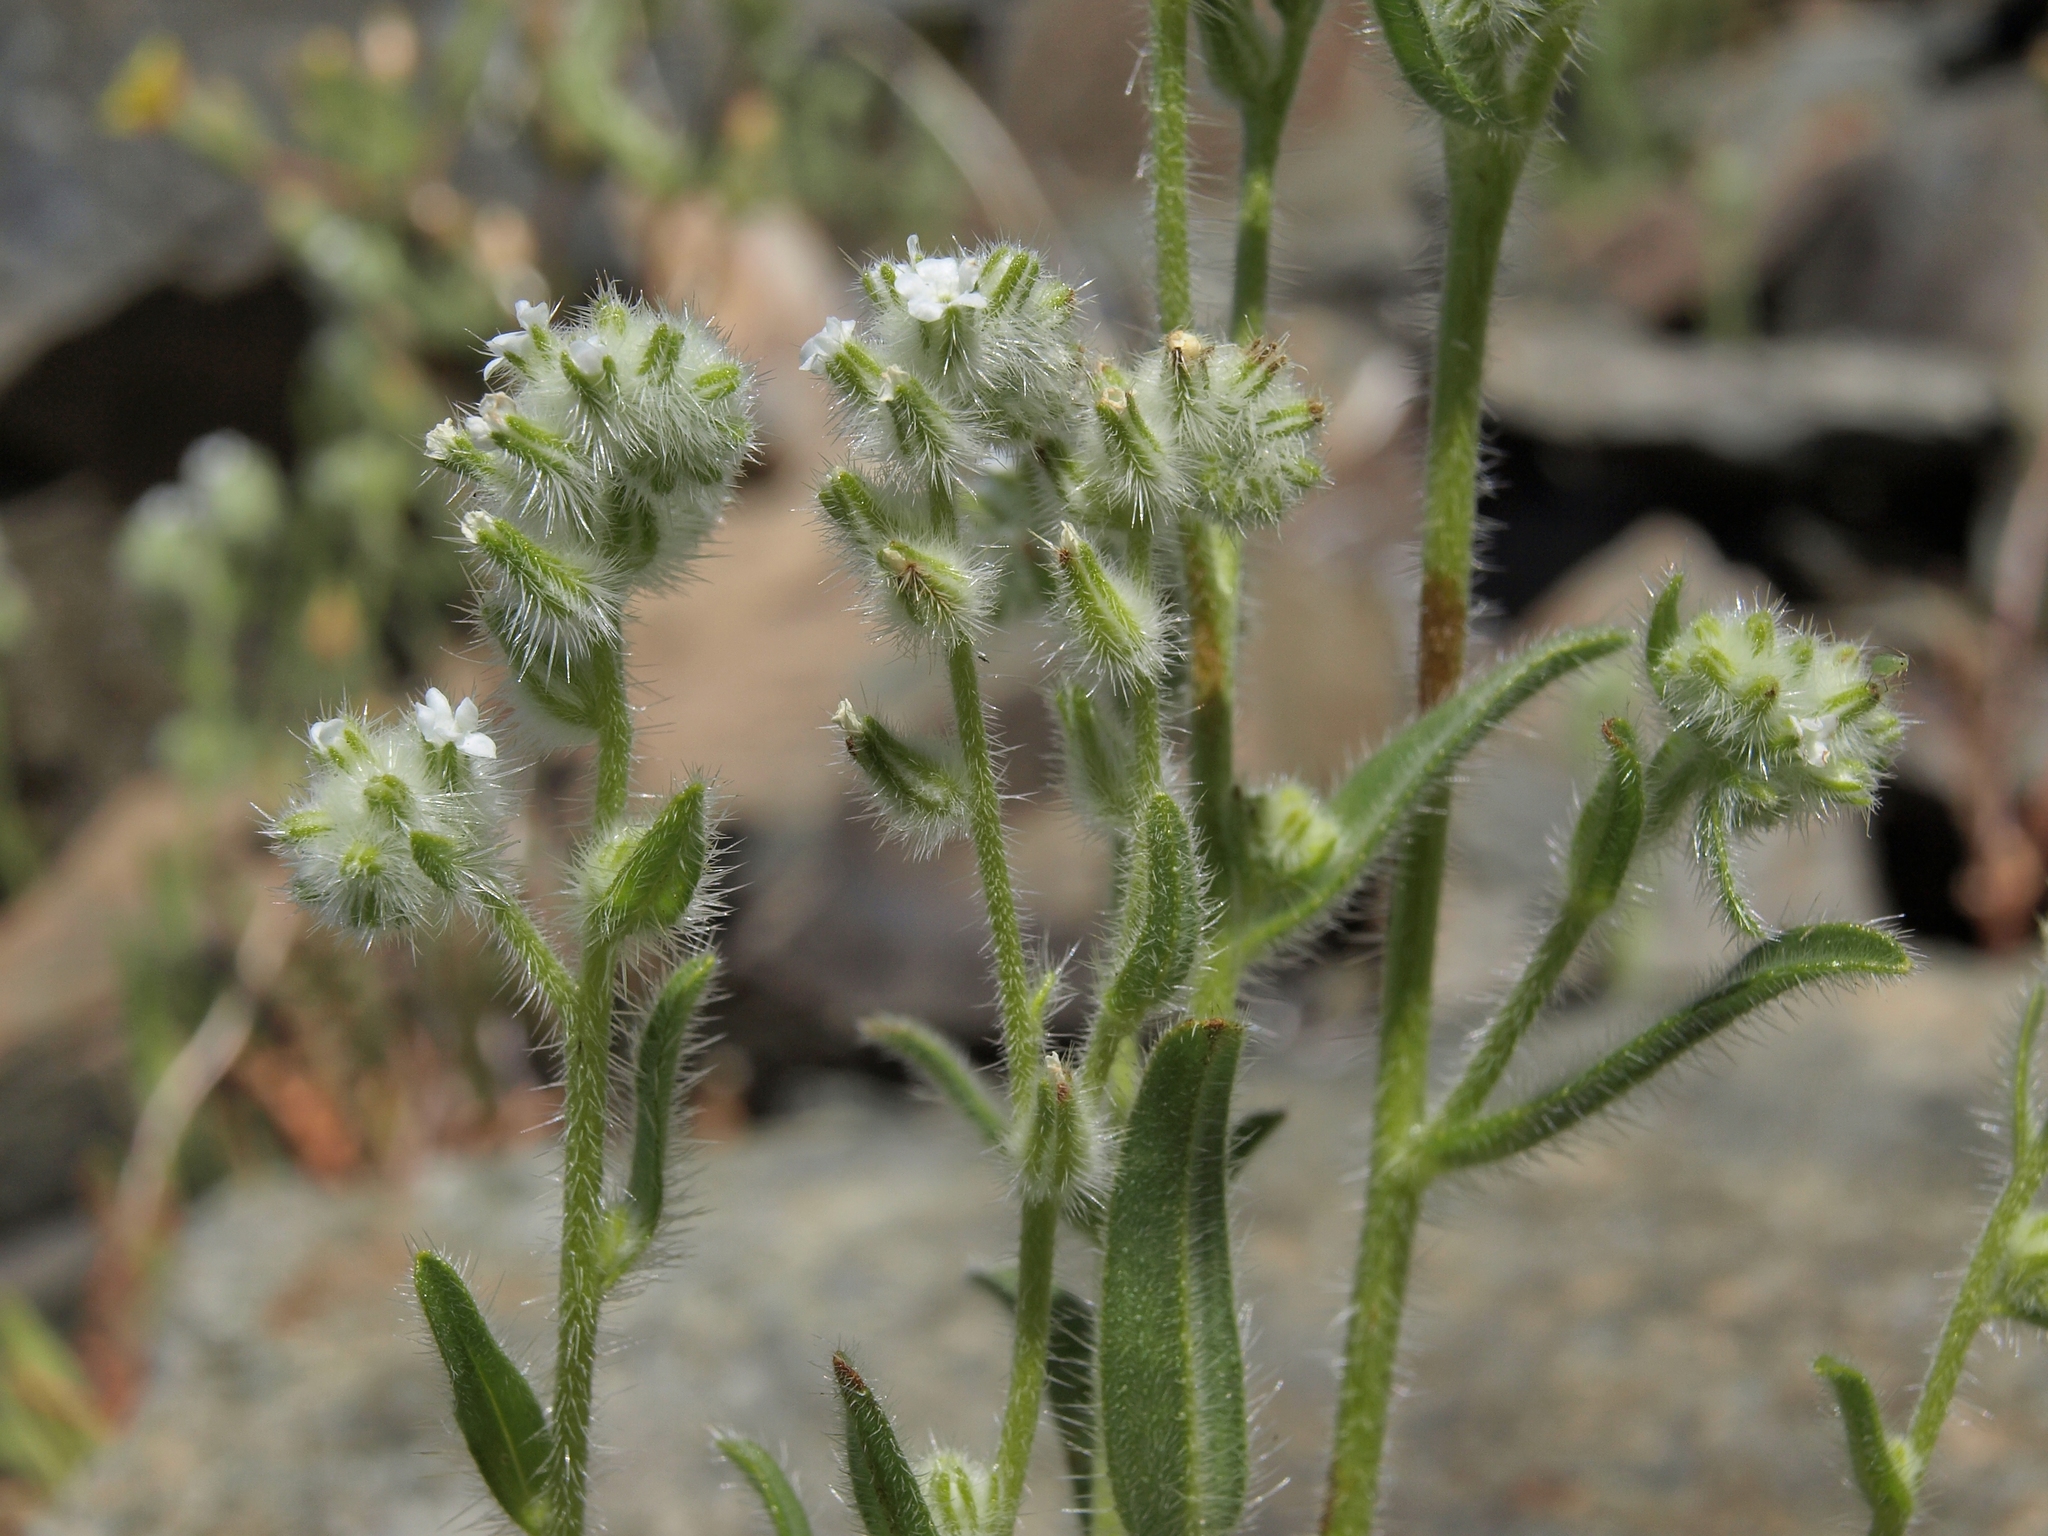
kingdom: Plantae
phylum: Tracheophyta
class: Magnoliopsida
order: Boraginales
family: Boraginaceae
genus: Cryptantha
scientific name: Cryptantha barbigera
